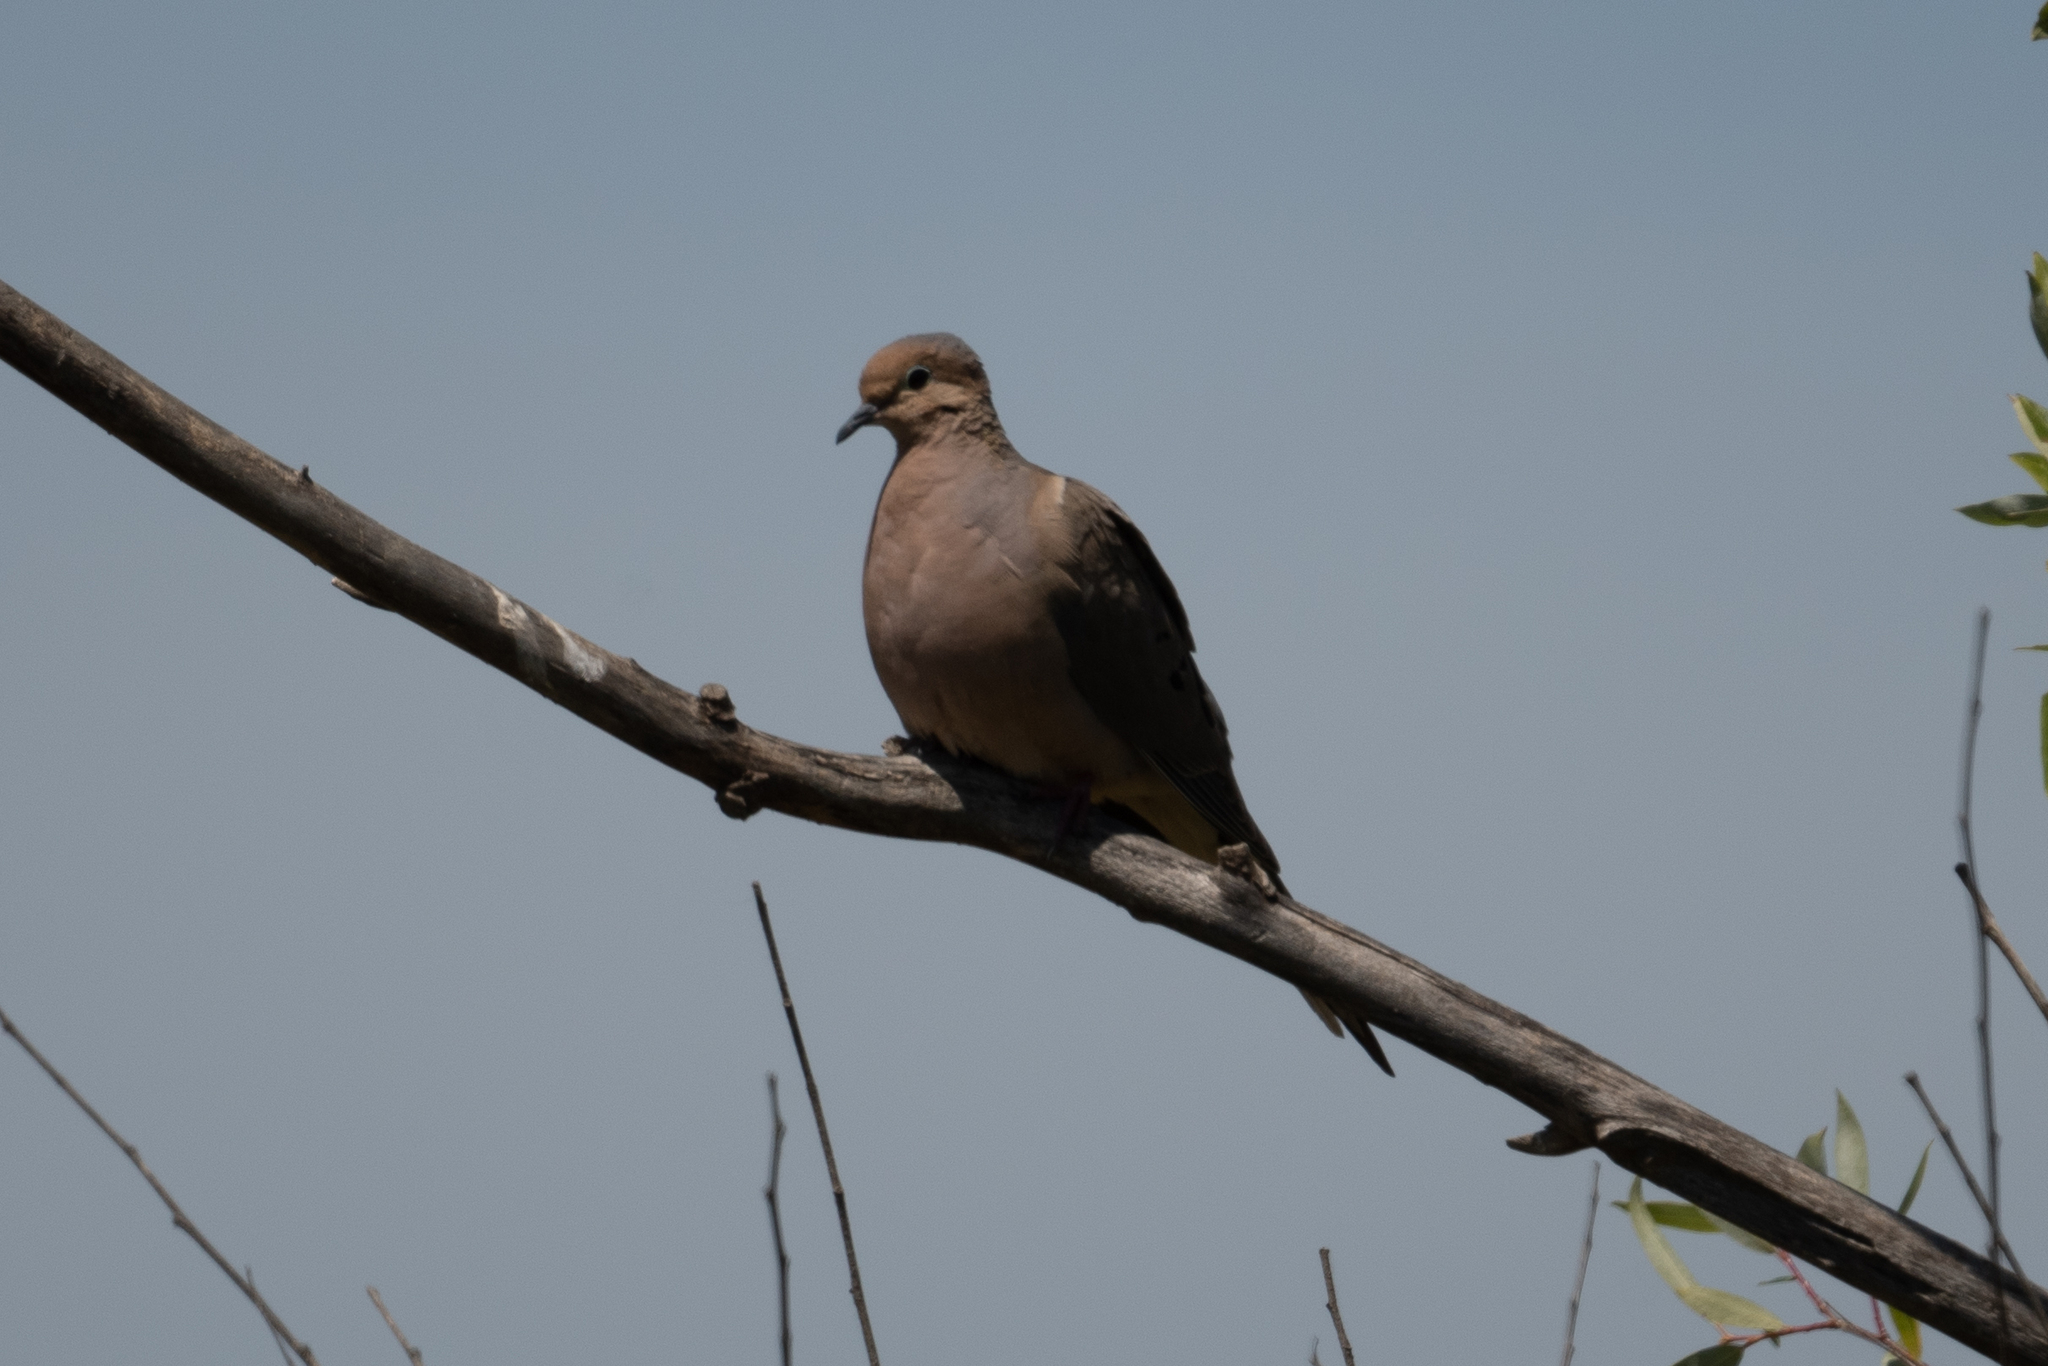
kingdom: Animalia
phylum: Chordata
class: Aves
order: Columbiformes
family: Columbidae
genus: Zenaida
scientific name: Zenaida macroura
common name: Mourning dove
